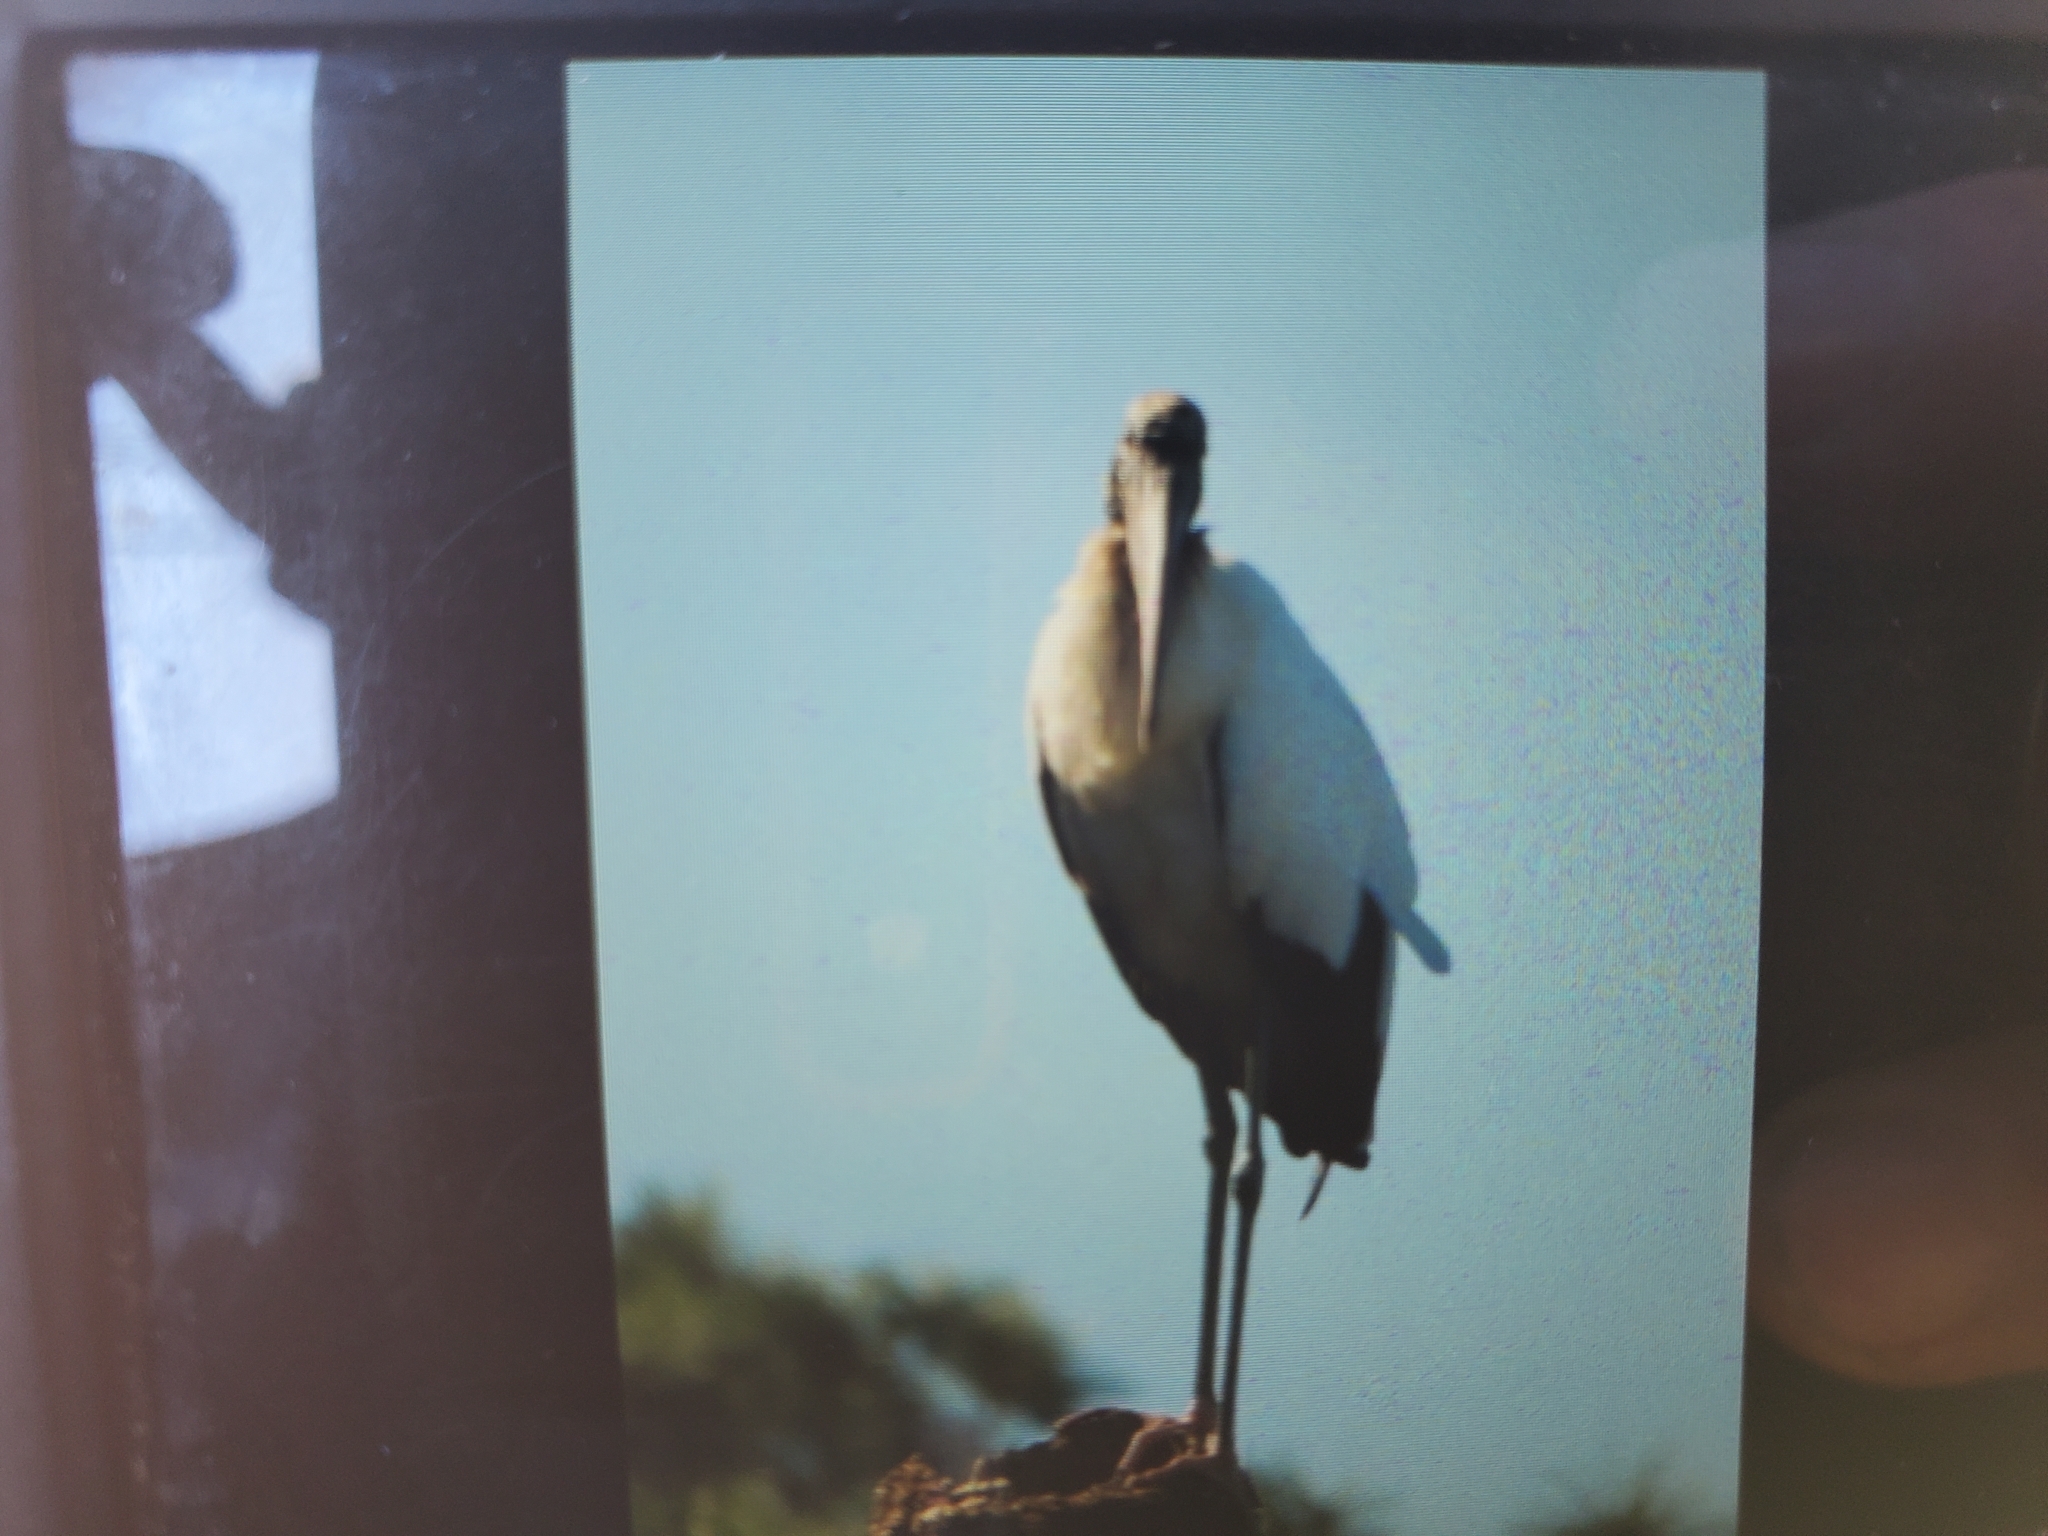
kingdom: Animalia
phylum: Chordata
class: Aves
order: Ciconiiformes
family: Ciconiidae
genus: Mycteria
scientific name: Mycteria americana
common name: Wood stork
